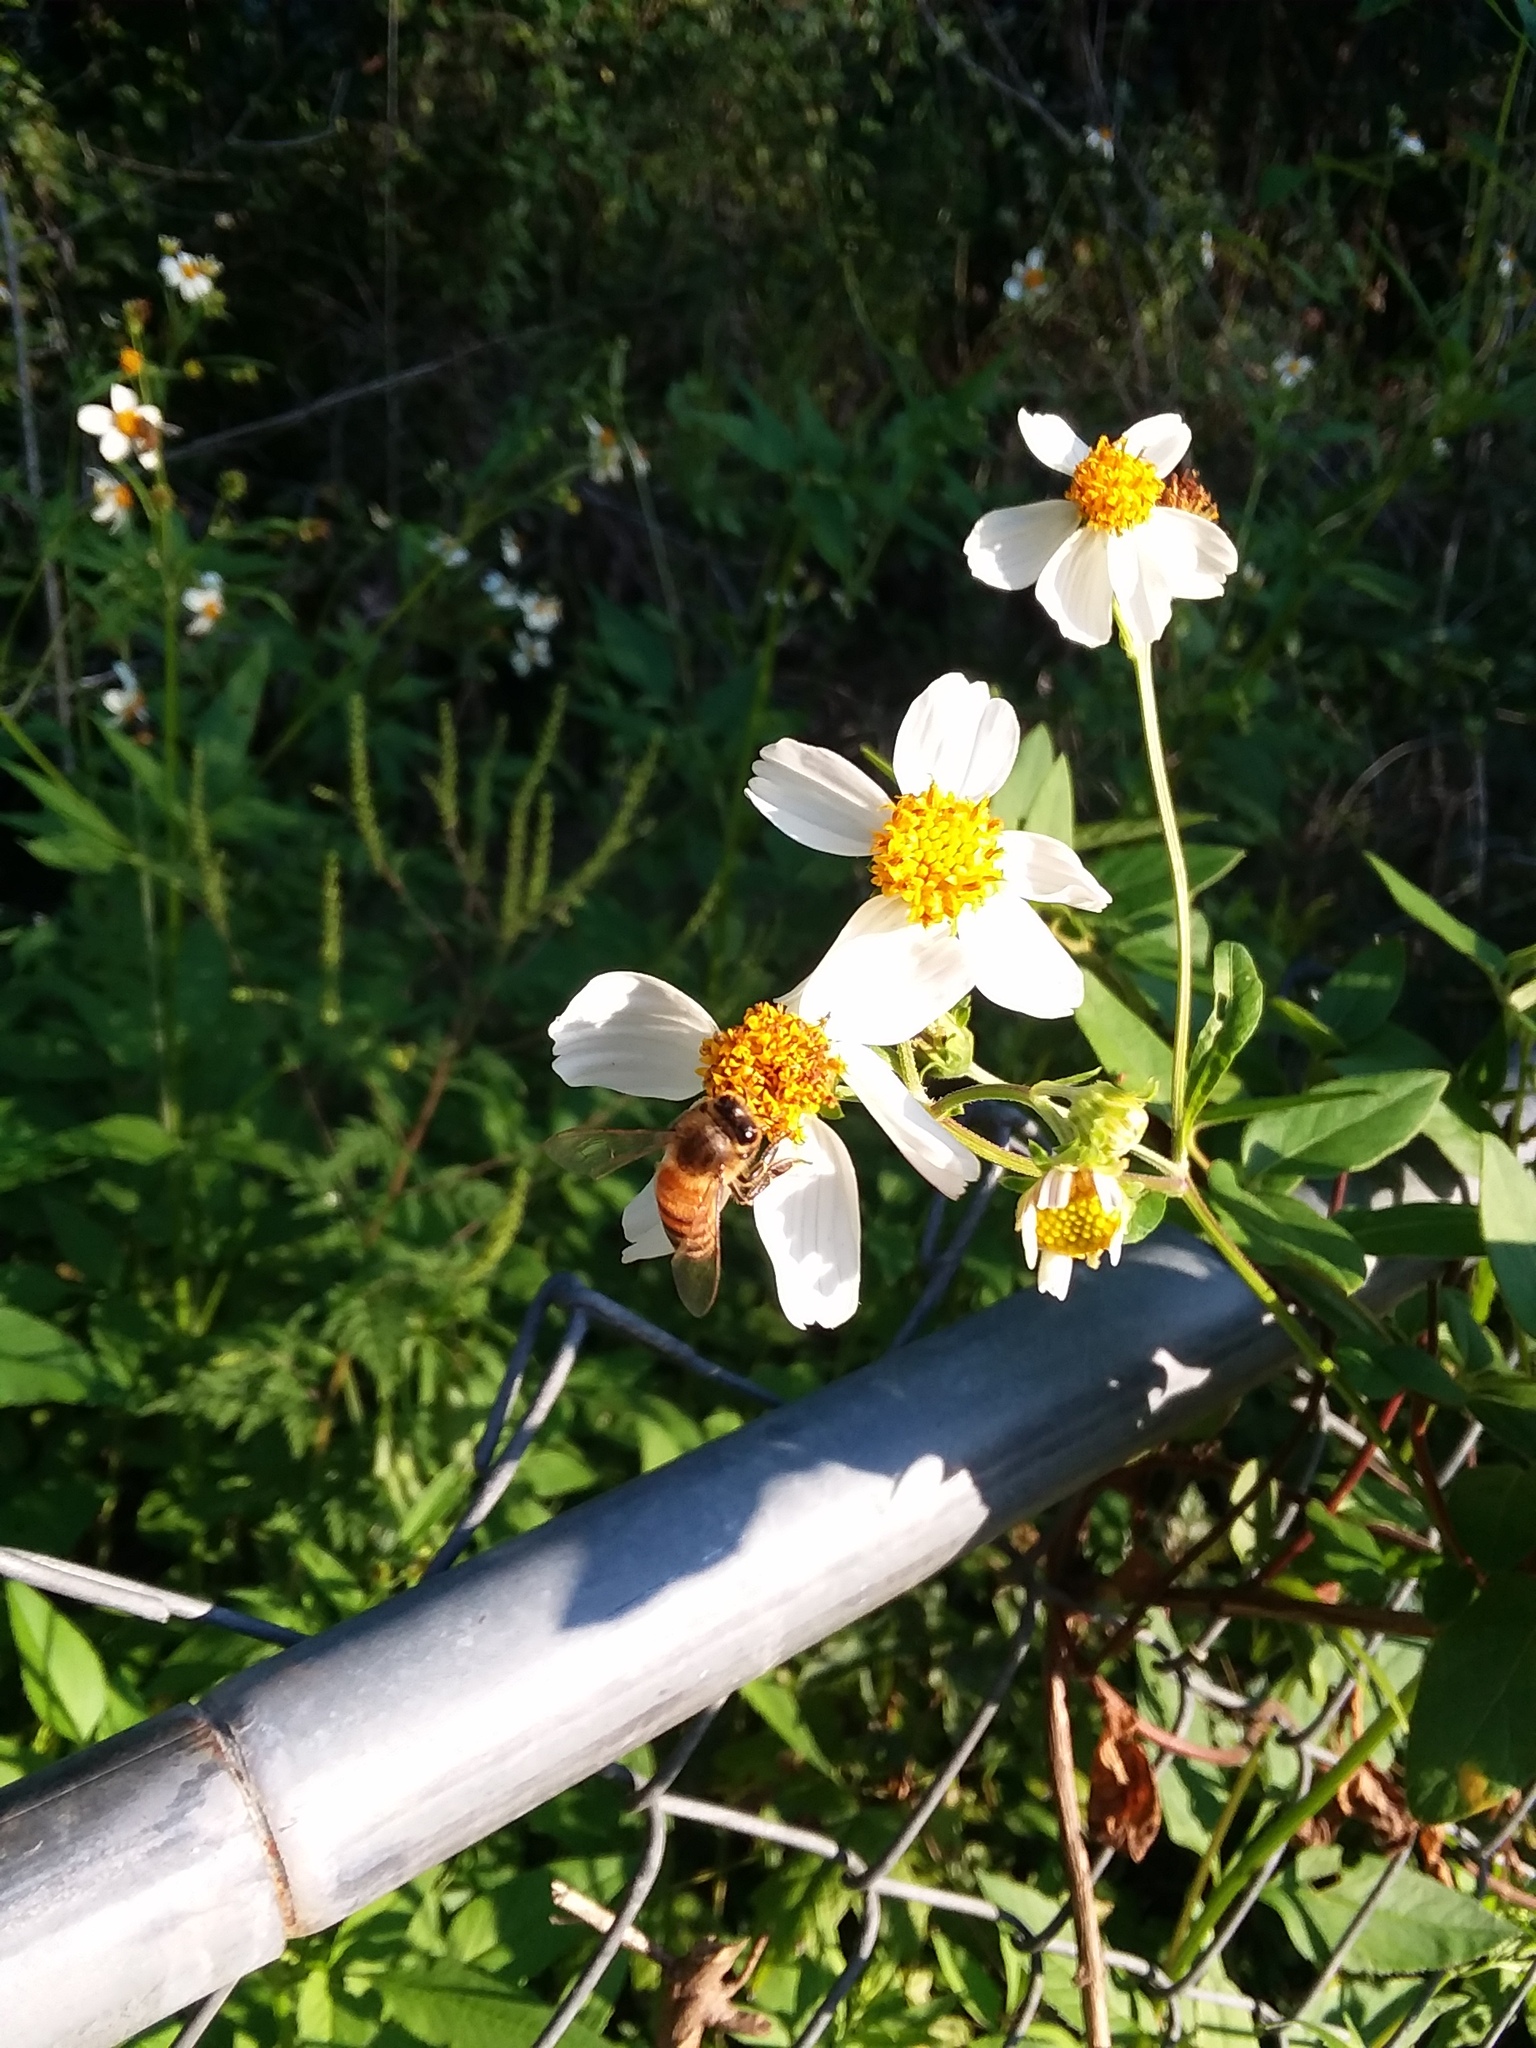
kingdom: Animalia
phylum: Arthropoda
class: Insecta
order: Hymenoptera
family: Apidae
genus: Apis
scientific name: Apis mellifera
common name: Honey bee
